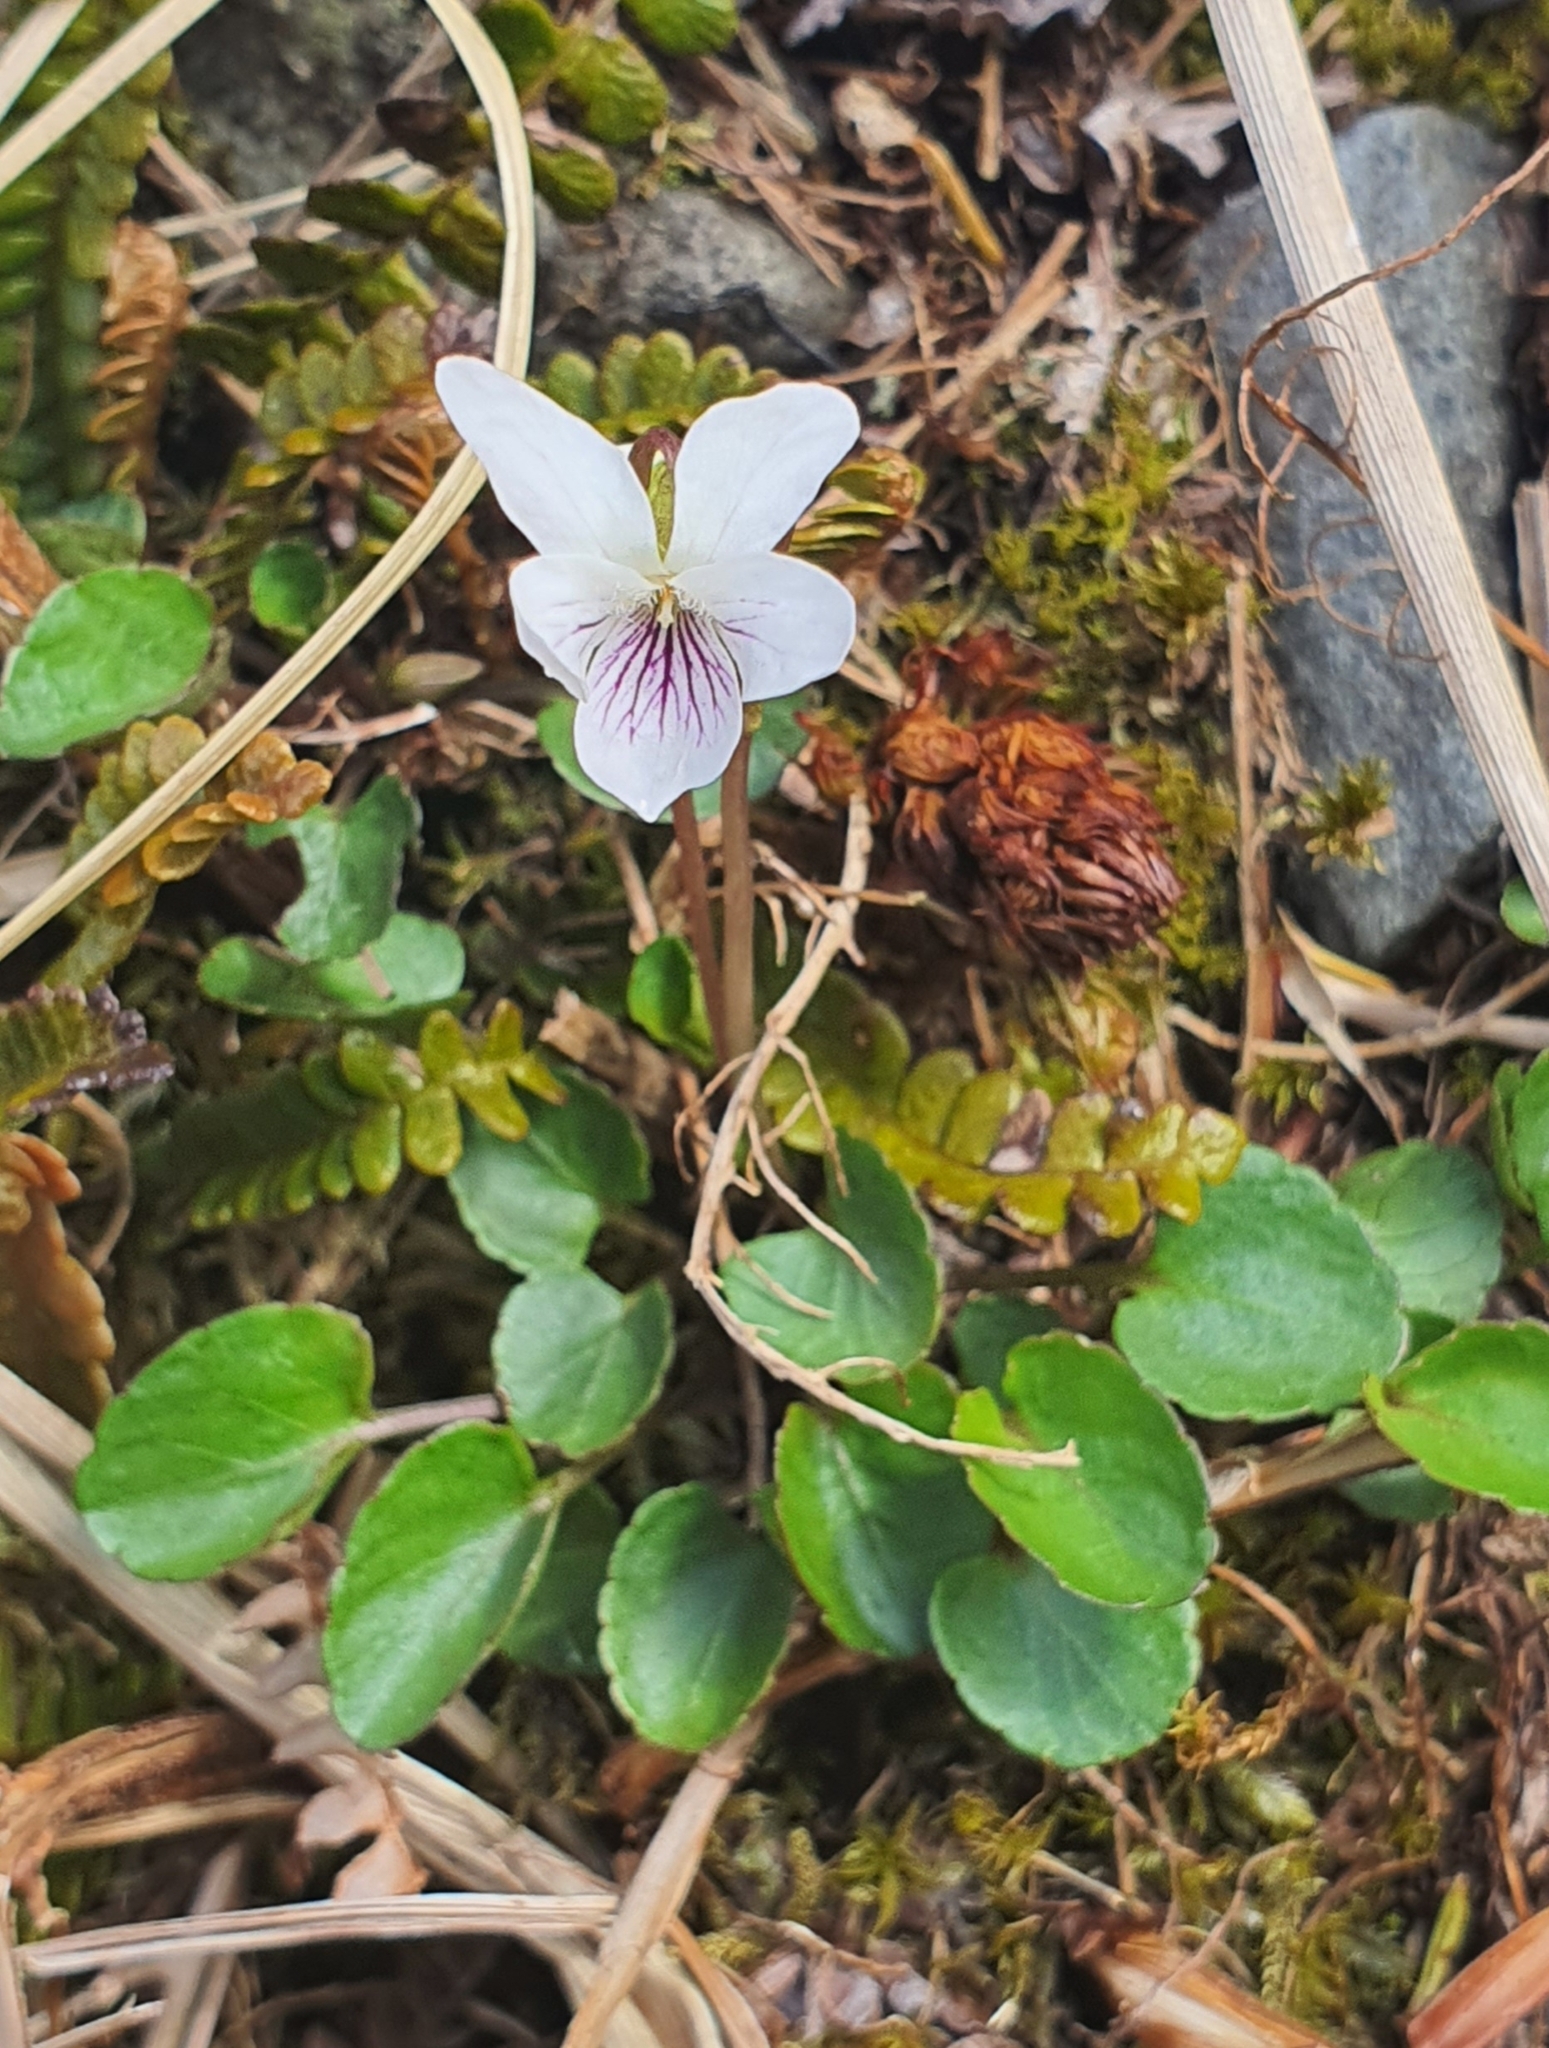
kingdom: Plantae
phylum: Tracheophyta
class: Magnoliopsida
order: Malpighiales
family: Violaceae
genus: Viola
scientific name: Viola cunninghamii
